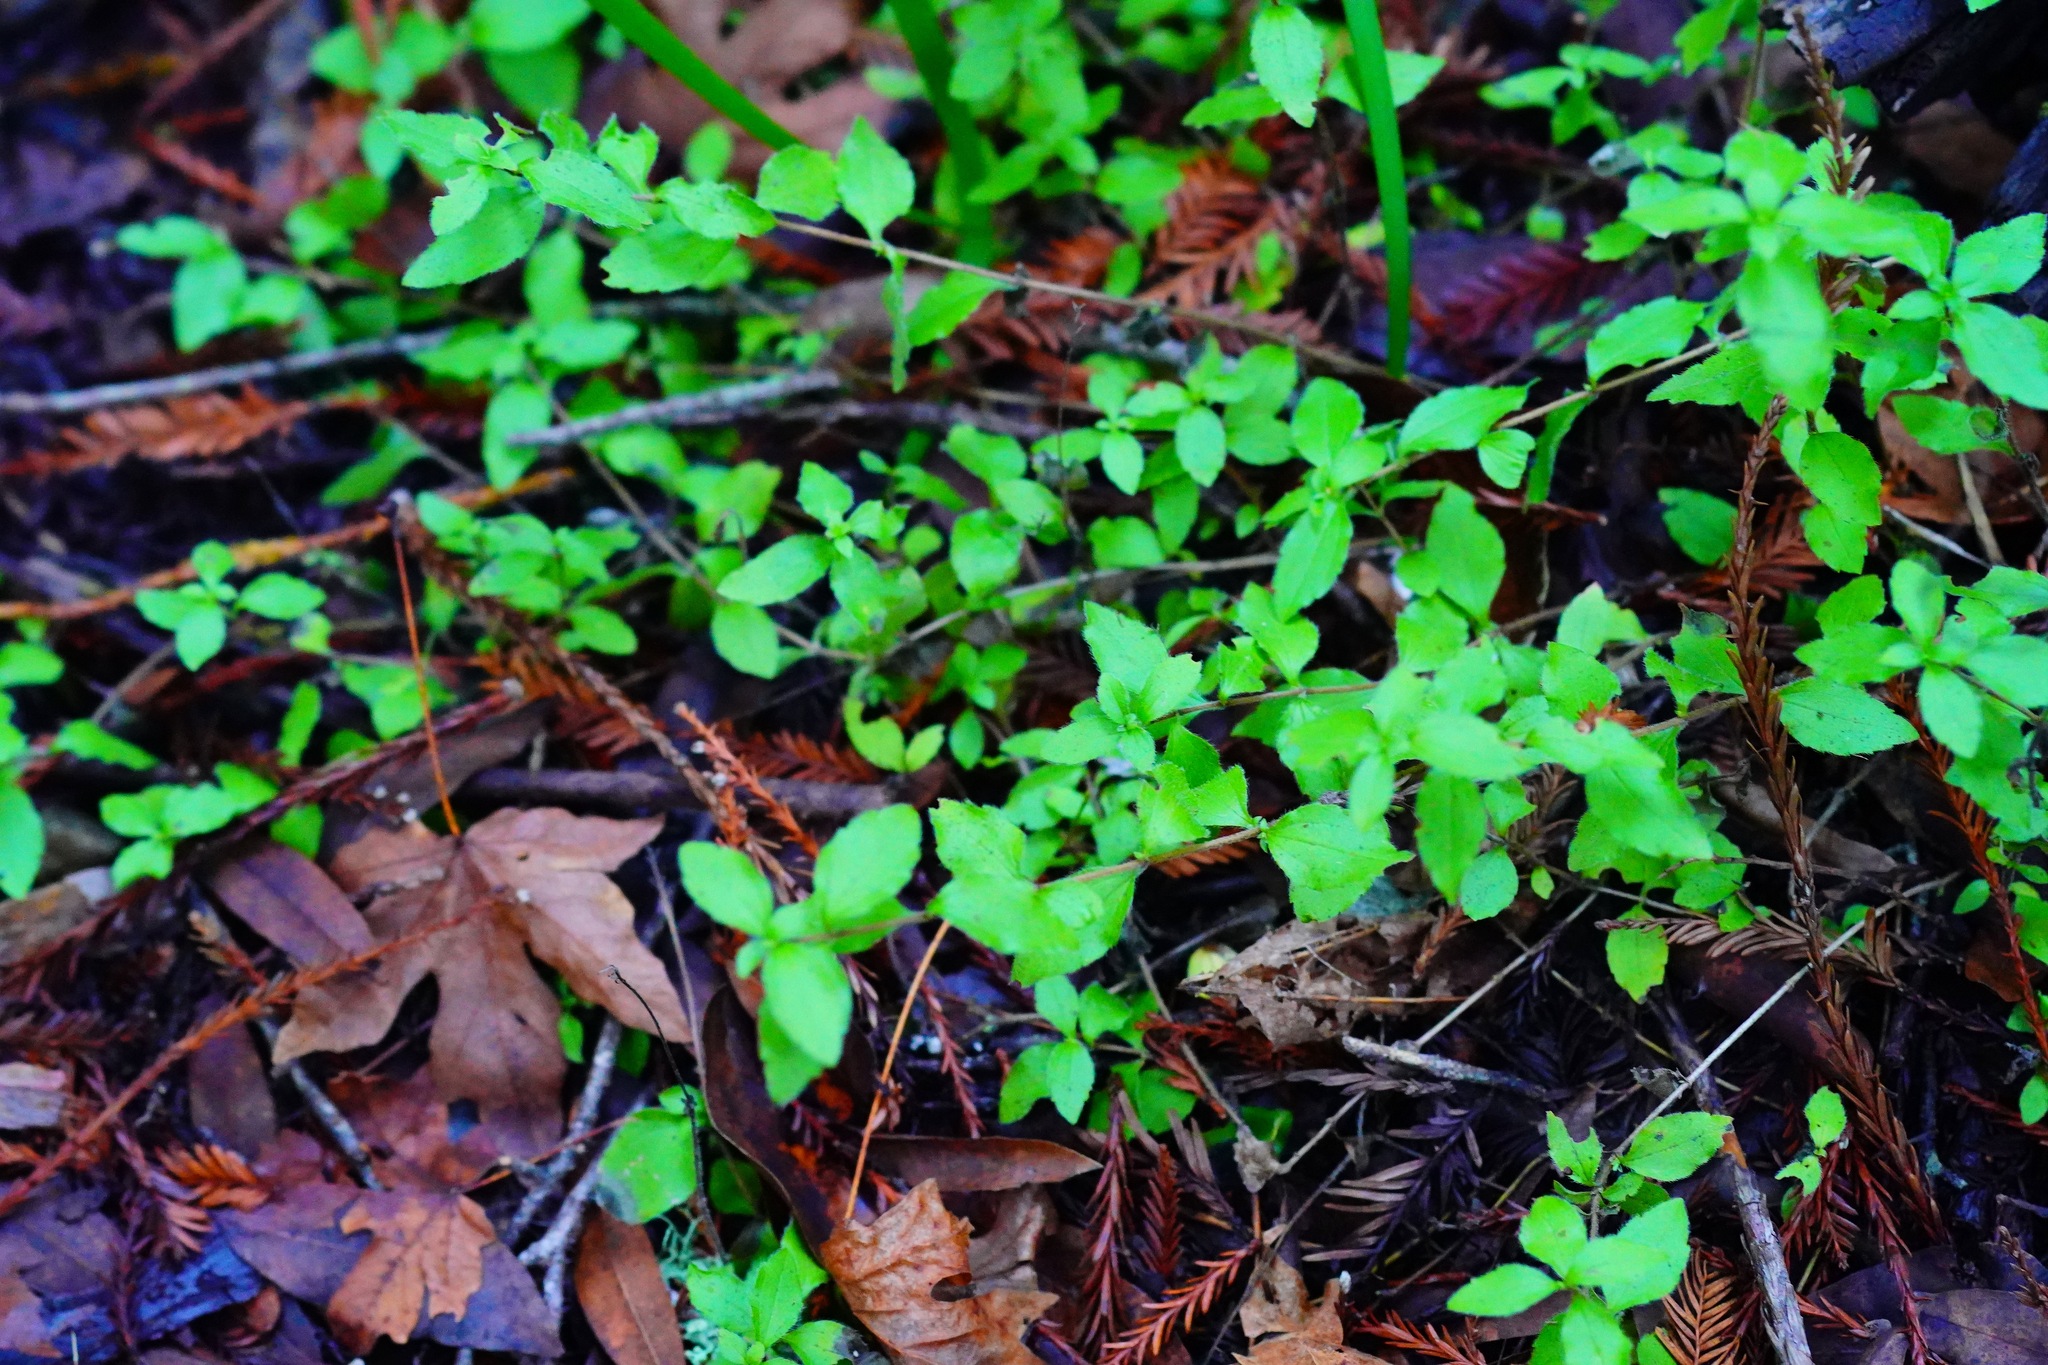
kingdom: Plantae
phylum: Tracheophyta
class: Magnoliopsida
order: Cornales
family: Hydrangeaceae
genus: Whipplea
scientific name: Whipplea modesta
